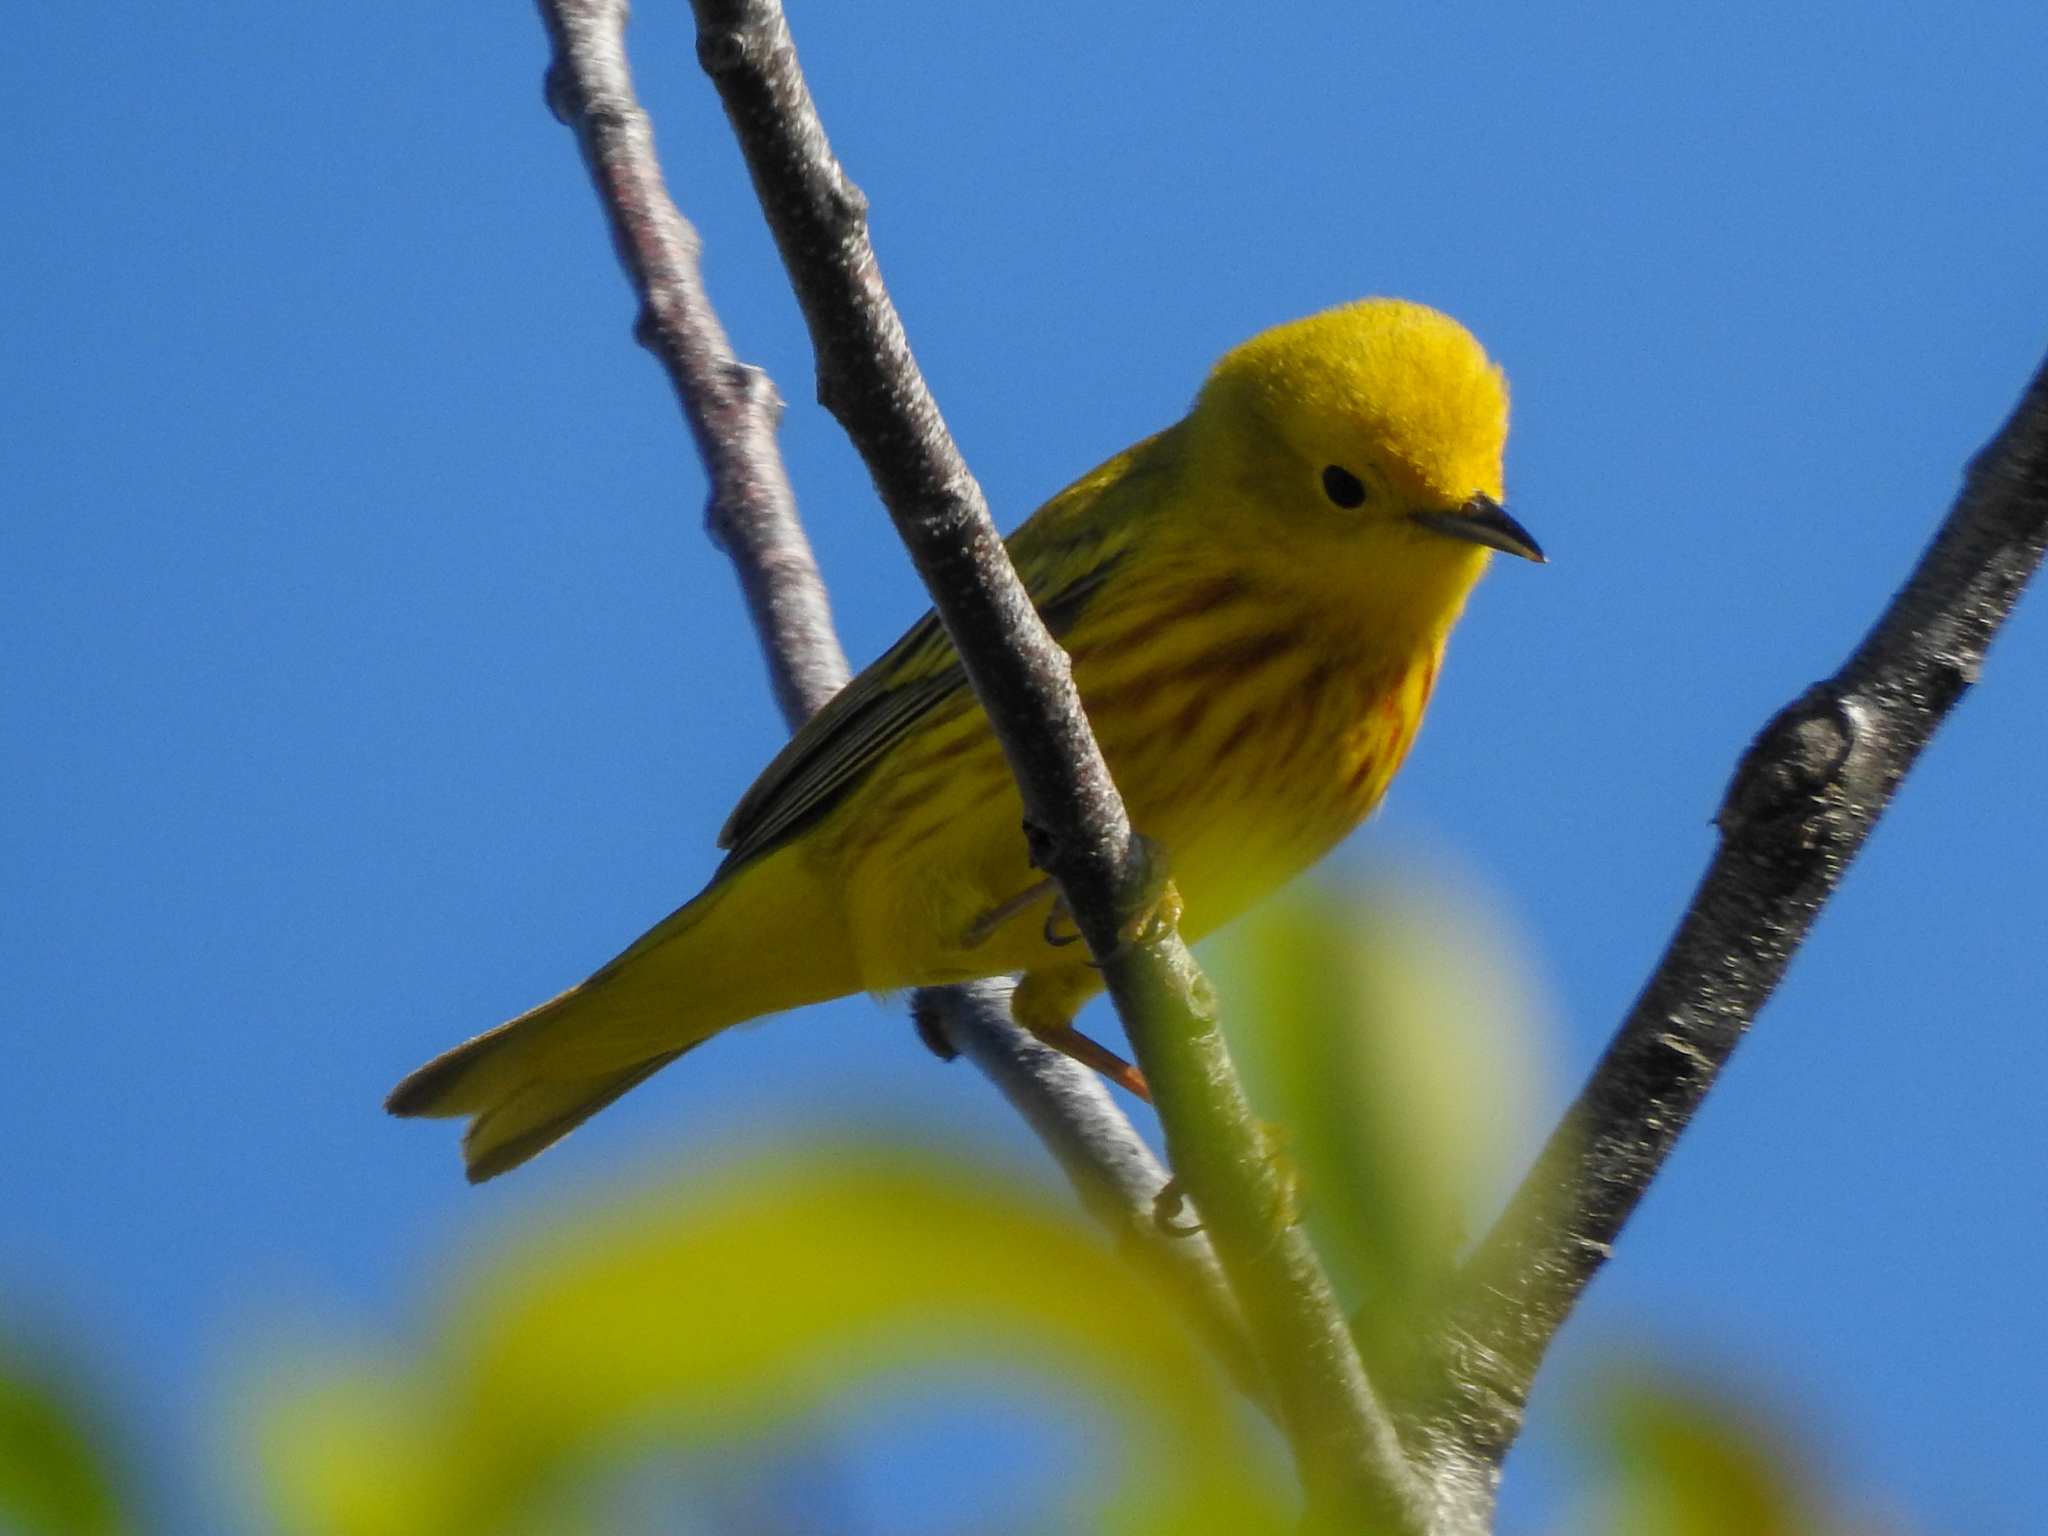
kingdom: Animalia
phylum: Chordata
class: Aves
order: Passeriformes
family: Parulidae
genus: Setophaga
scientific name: Setophaga petechia
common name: Yellow warbler
